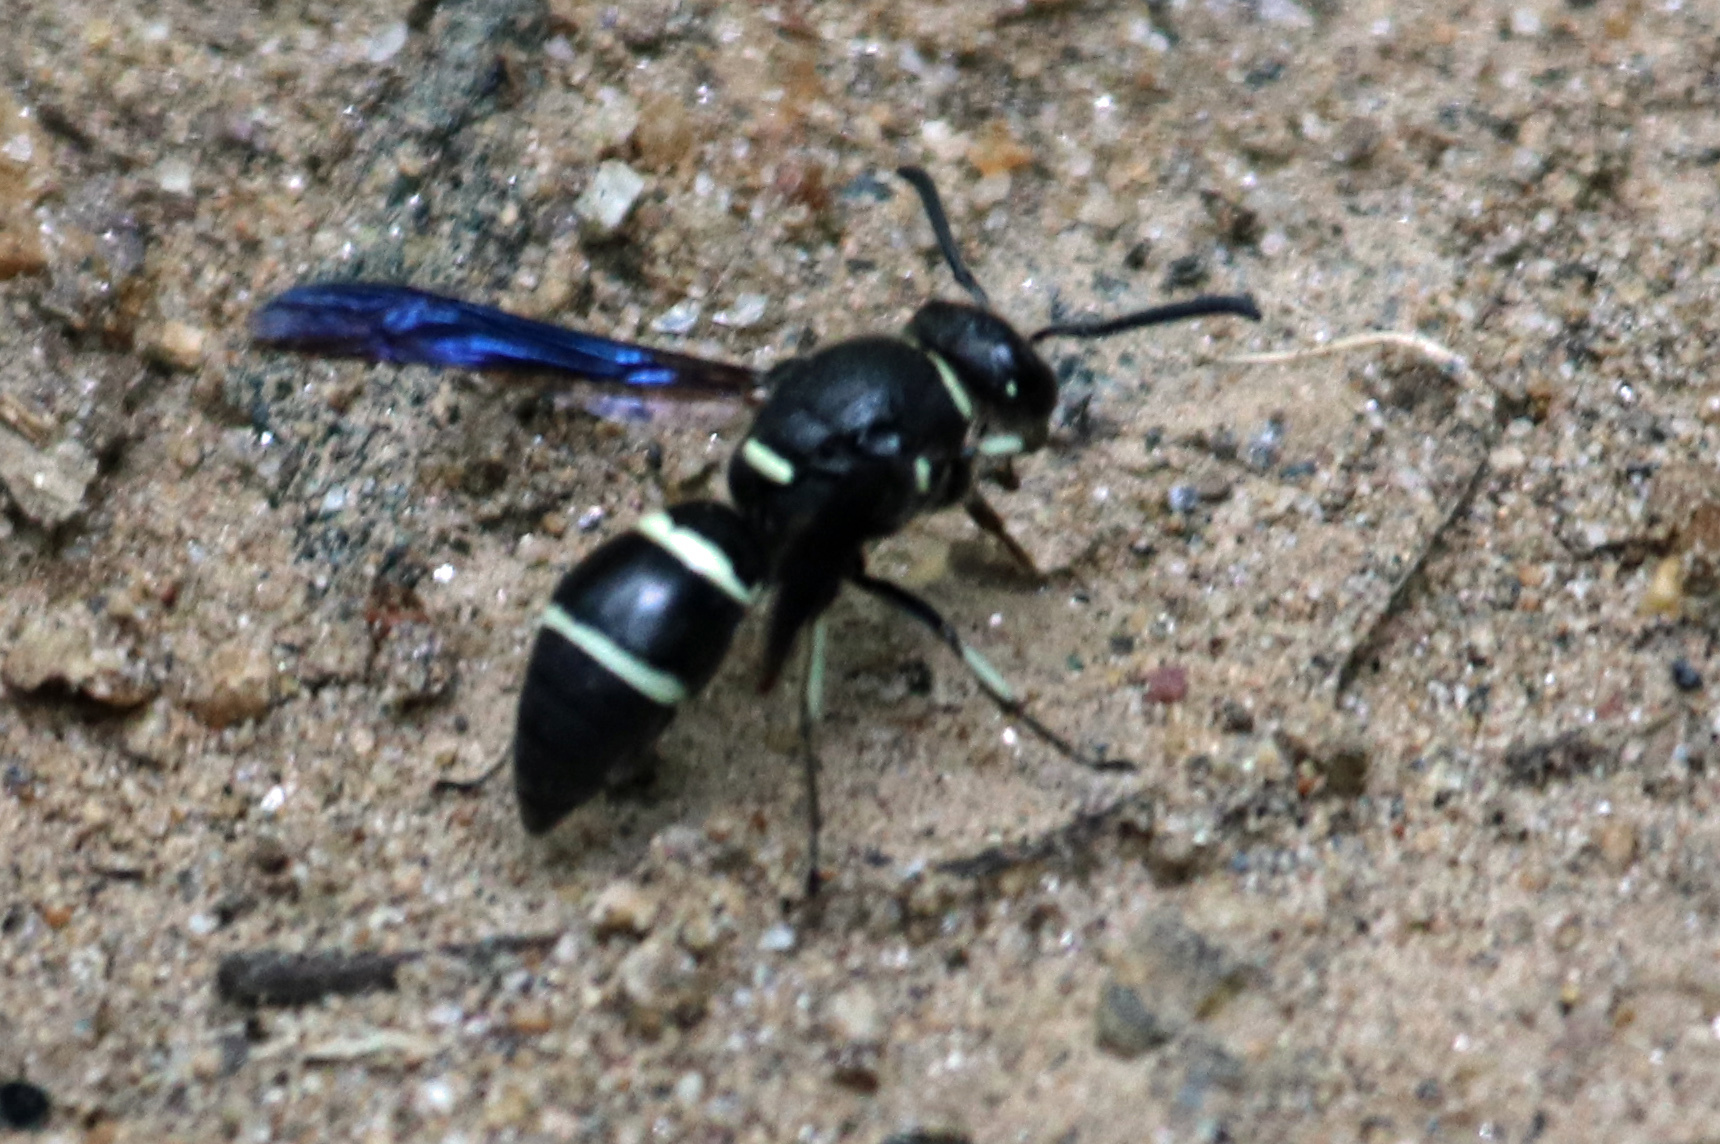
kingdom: Animalia
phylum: Arthropoda
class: Insecta
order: Hymenoptera
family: Eumenidae
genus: Euodynerus
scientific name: Euodynerus megaera
